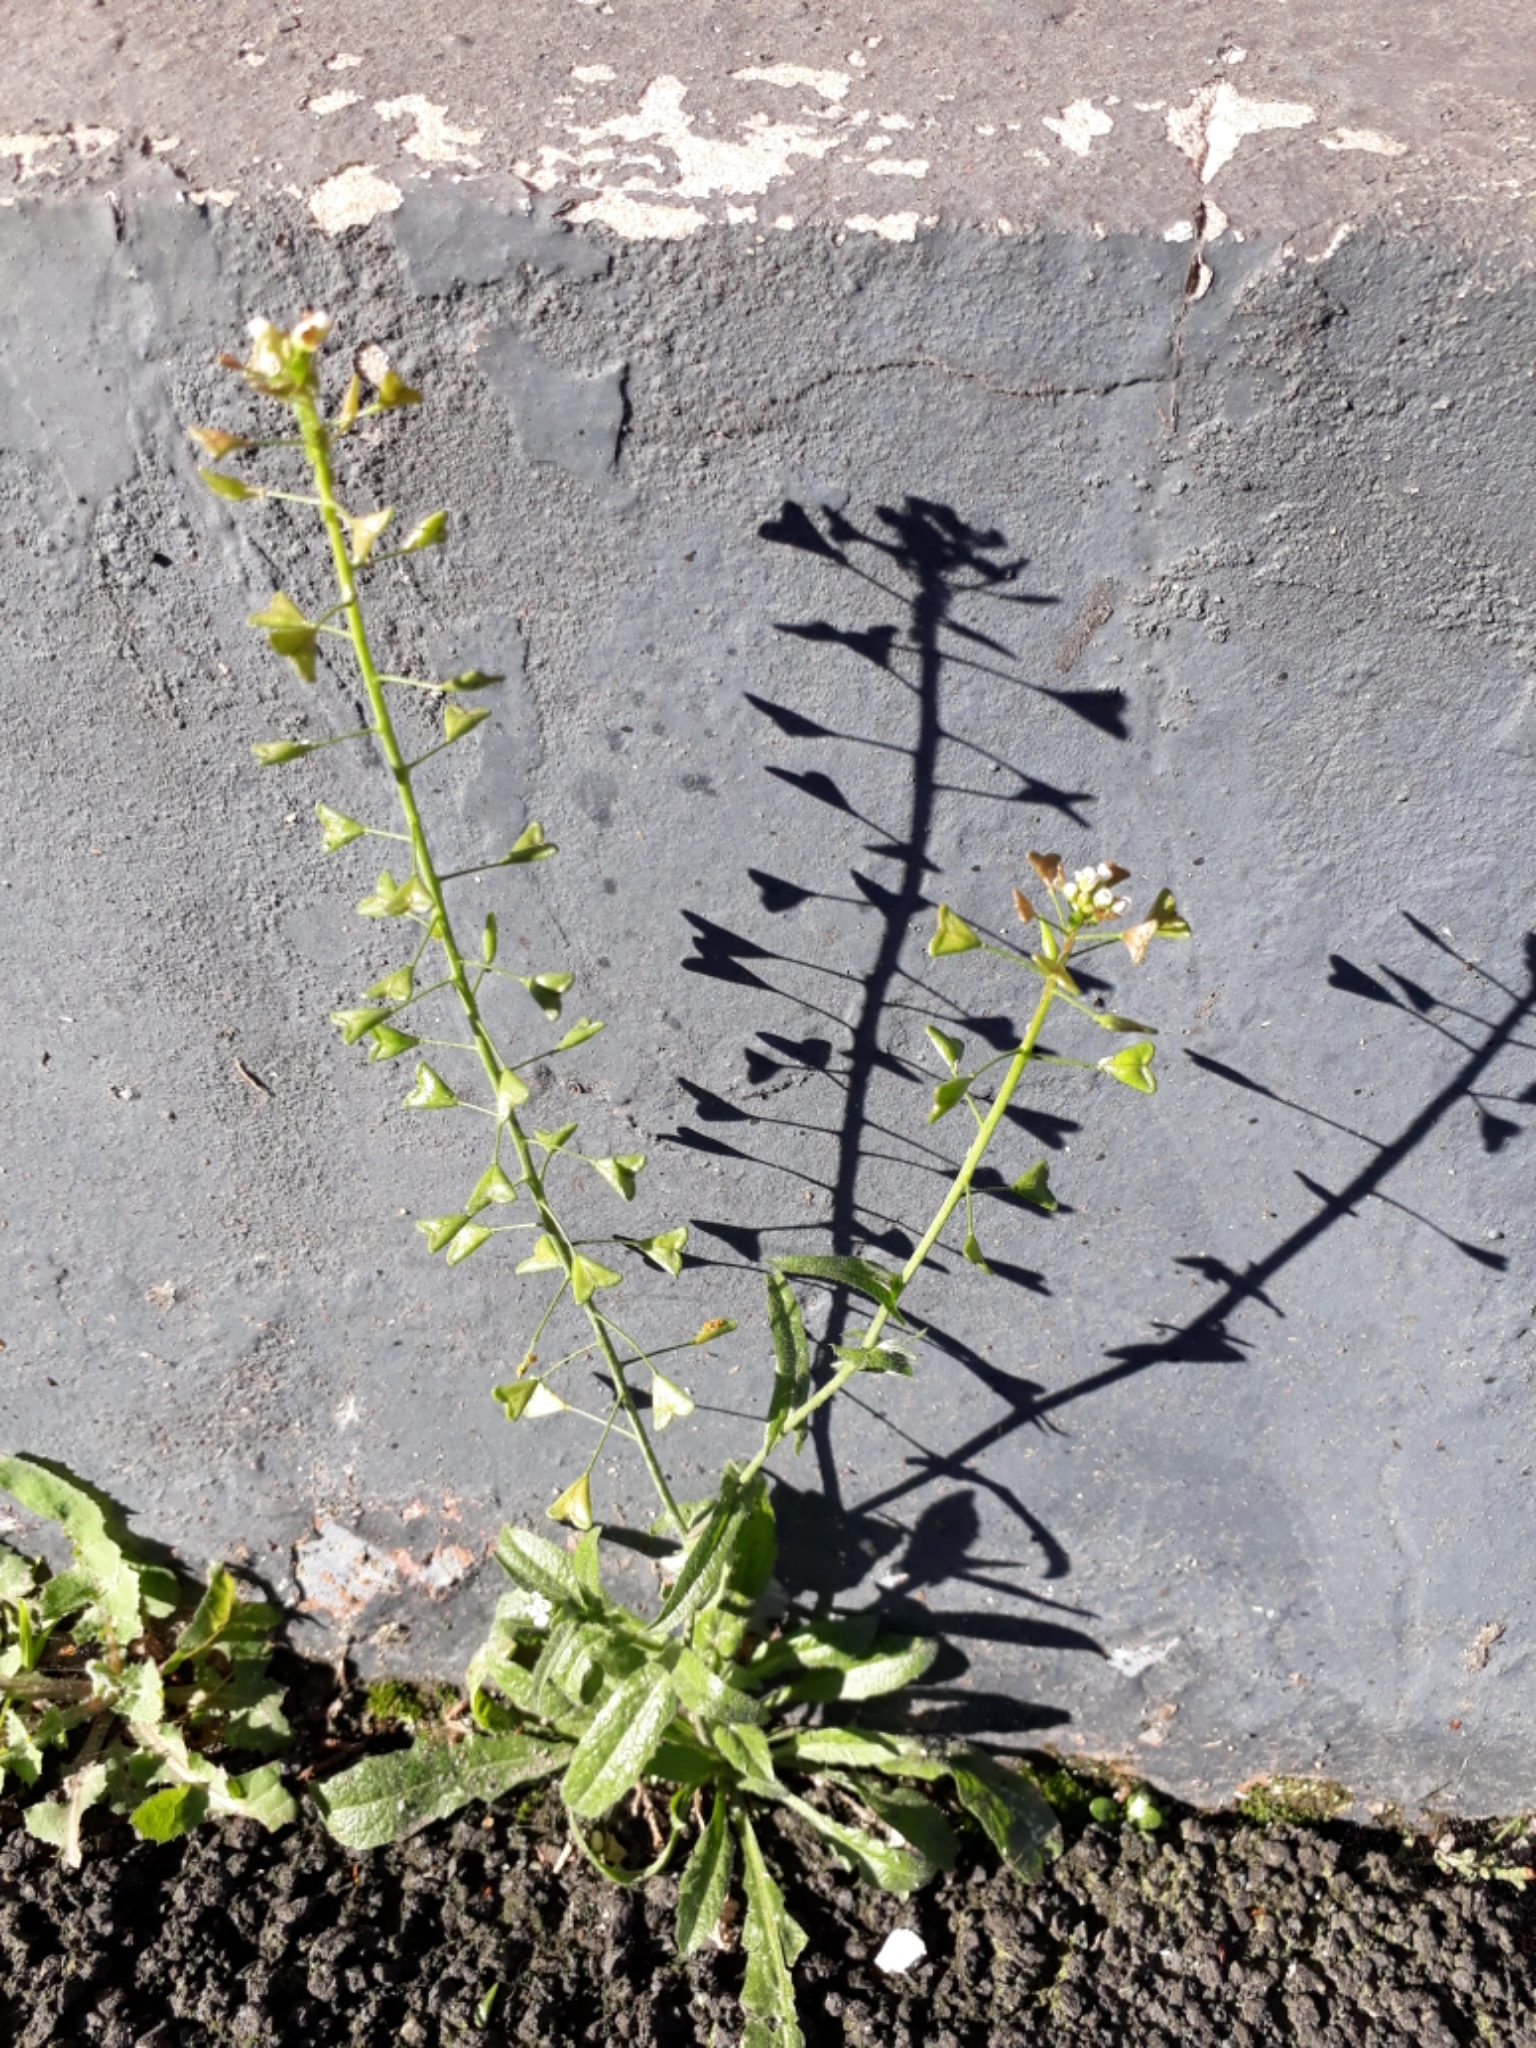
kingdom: Plantae
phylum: Tracheophyta
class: Magnoliopsida
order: Brassicales
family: Brassicaceae
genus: Capsella
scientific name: Capsella bursa-pastoris
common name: Shepherd's purse
